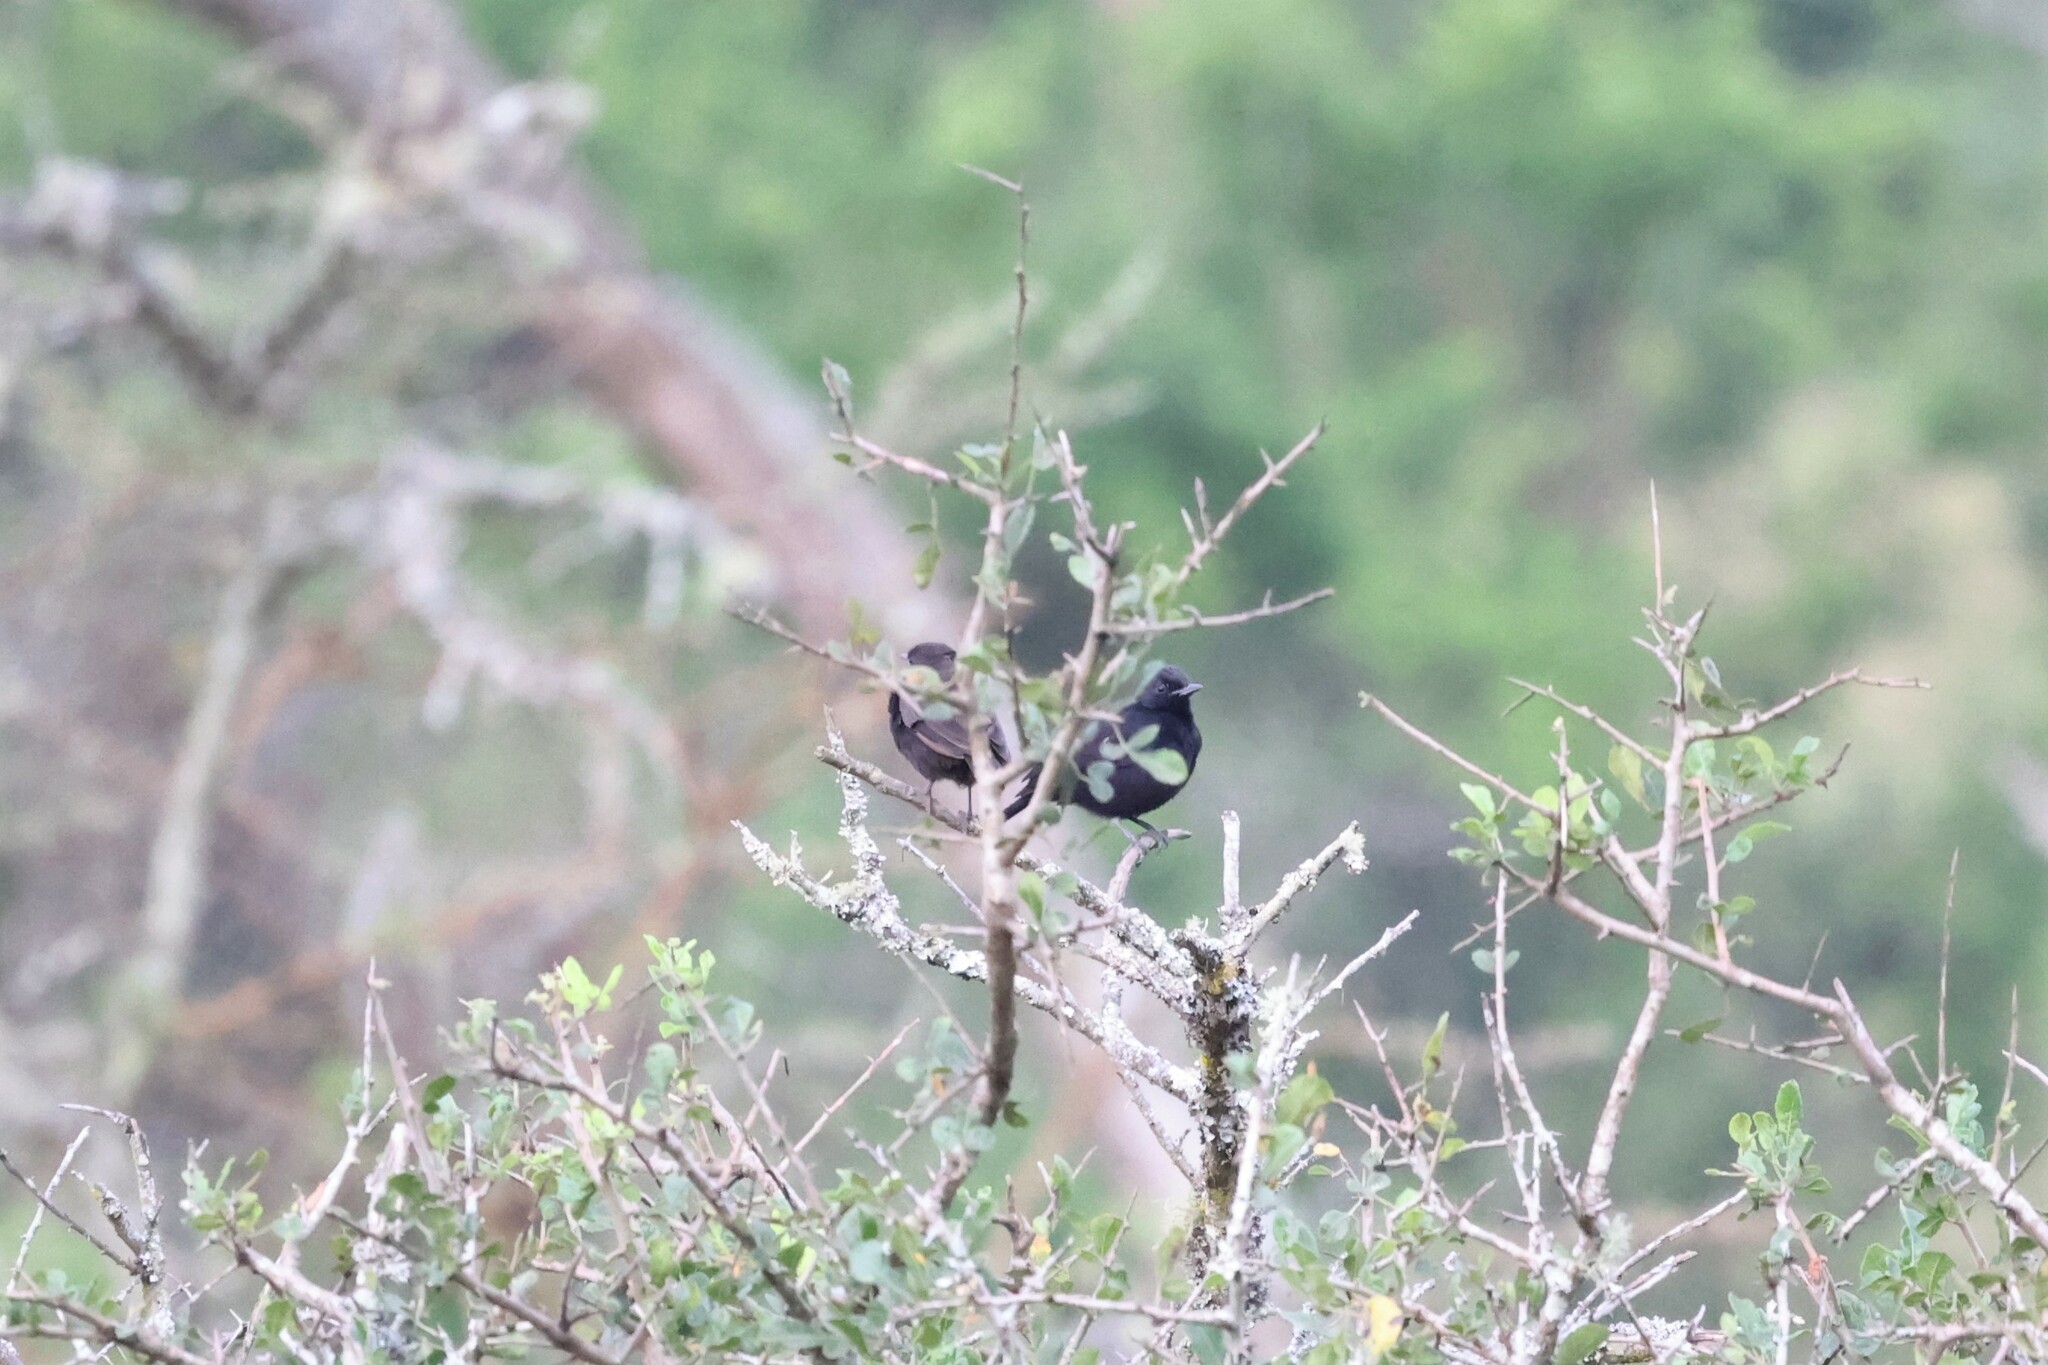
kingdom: Animalia
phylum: Chordata
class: Aves
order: Passeriformes
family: Muscicapidae
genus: Myrmecocichla
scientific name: Myrmecocichla nigra
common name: Sooty chat
